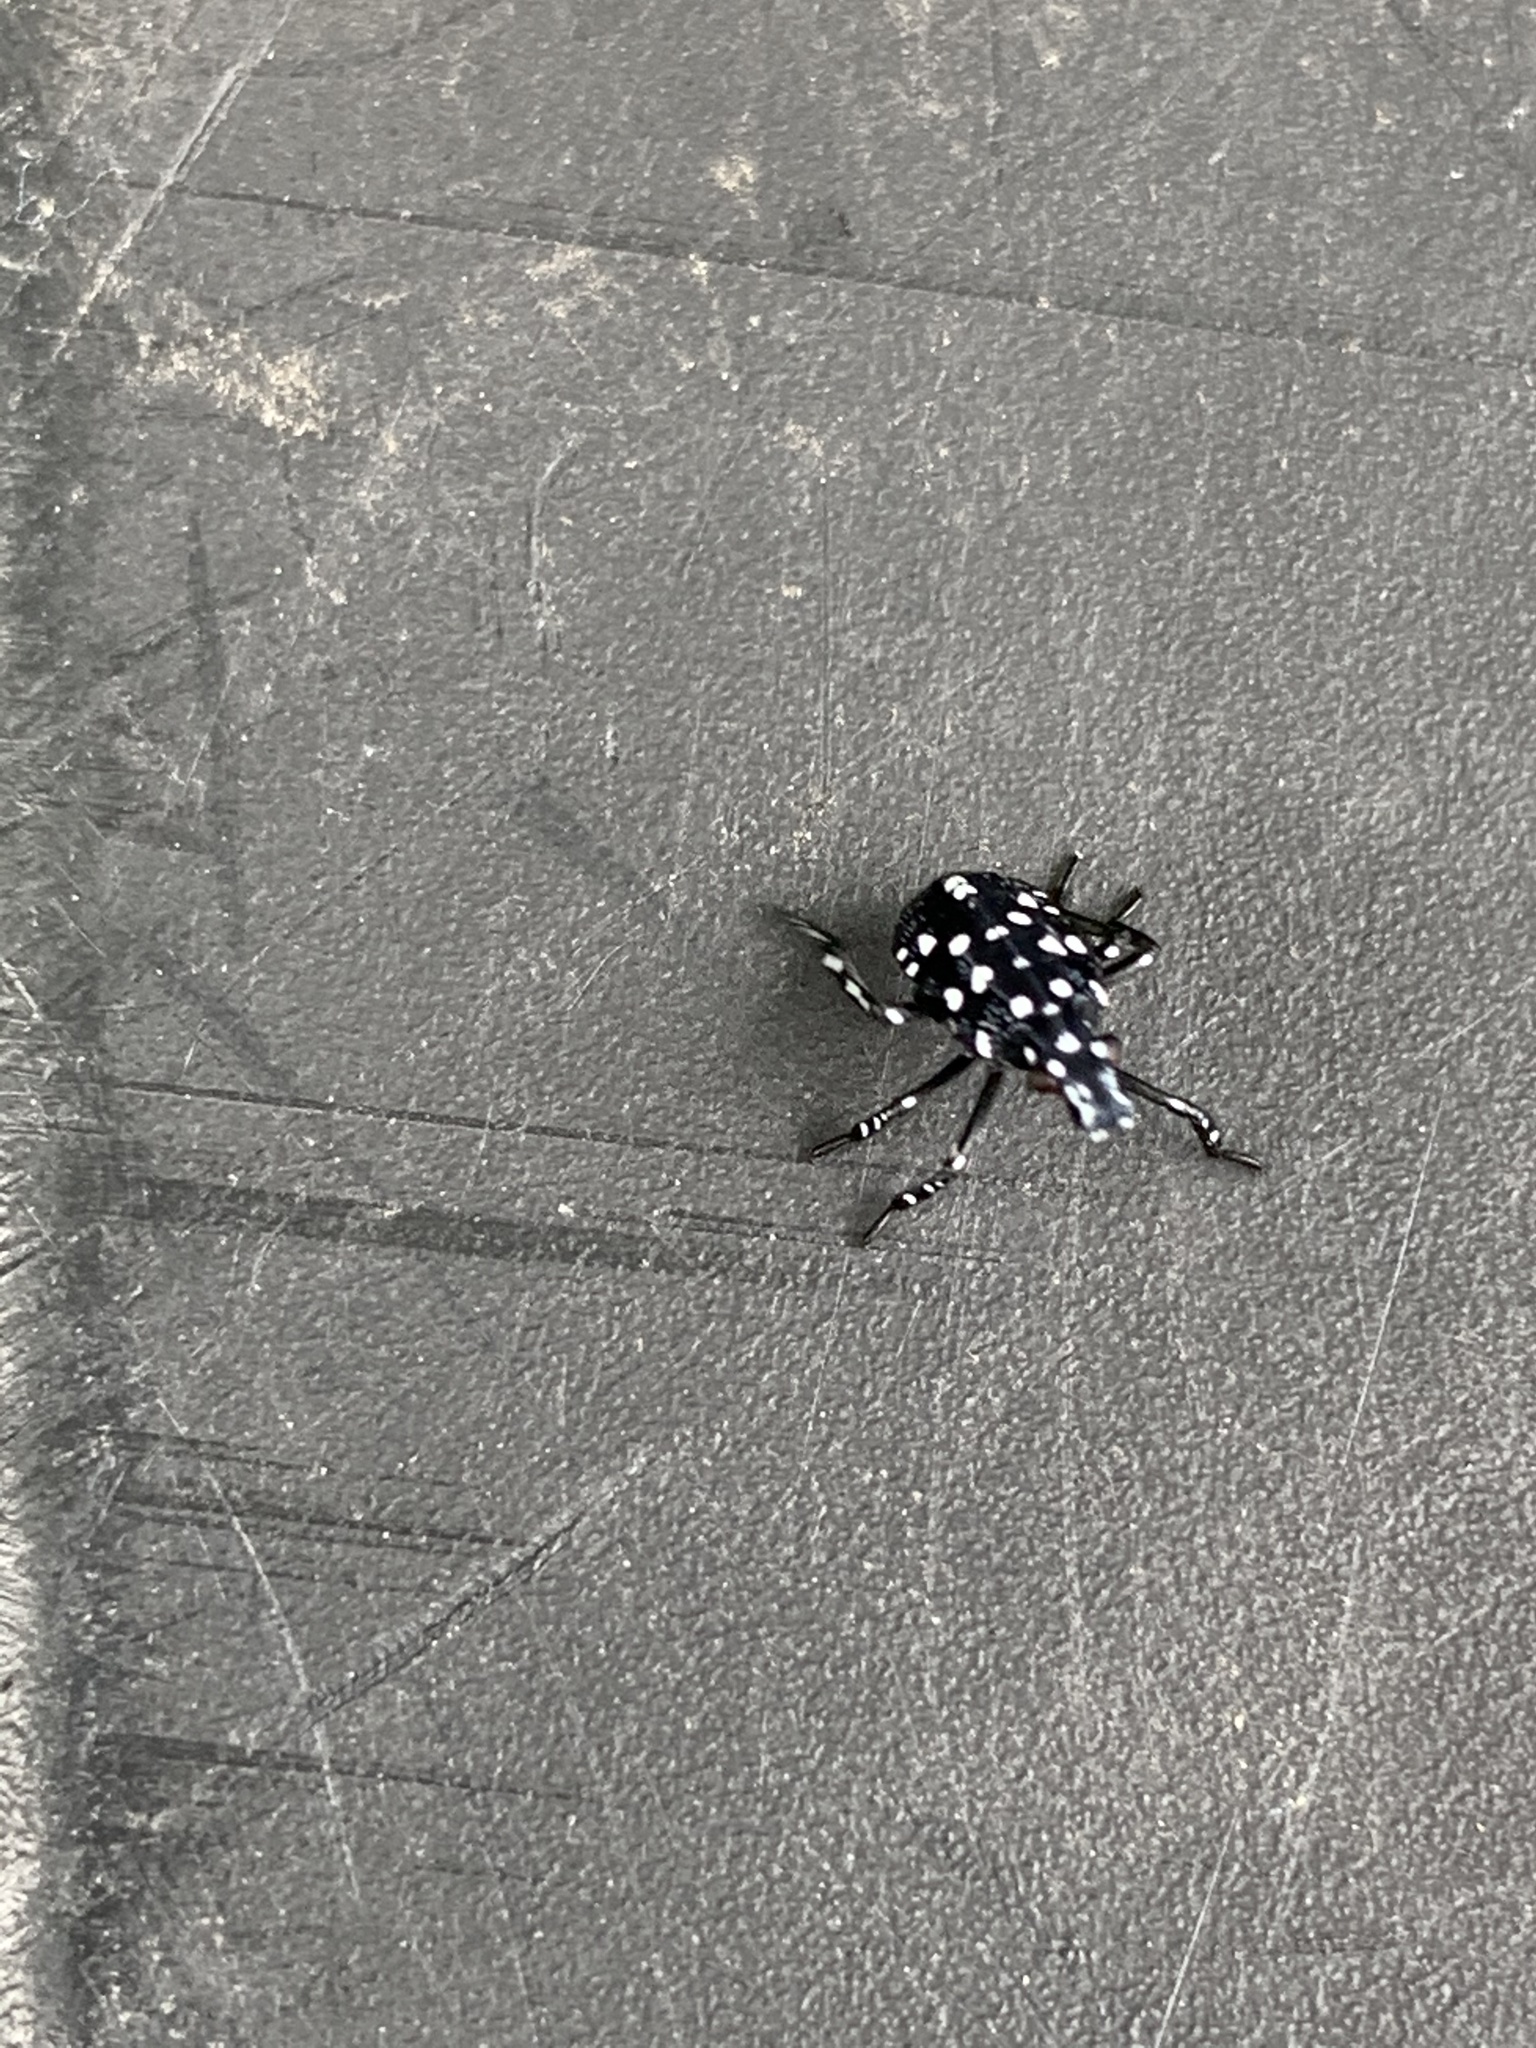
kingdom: Animalia
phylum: Arthropoda
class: Insecta
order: Hemiptera
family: Fulgoridae
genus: Lycorma
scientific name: Lycorma delicatula
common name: Spotted lanternfly
